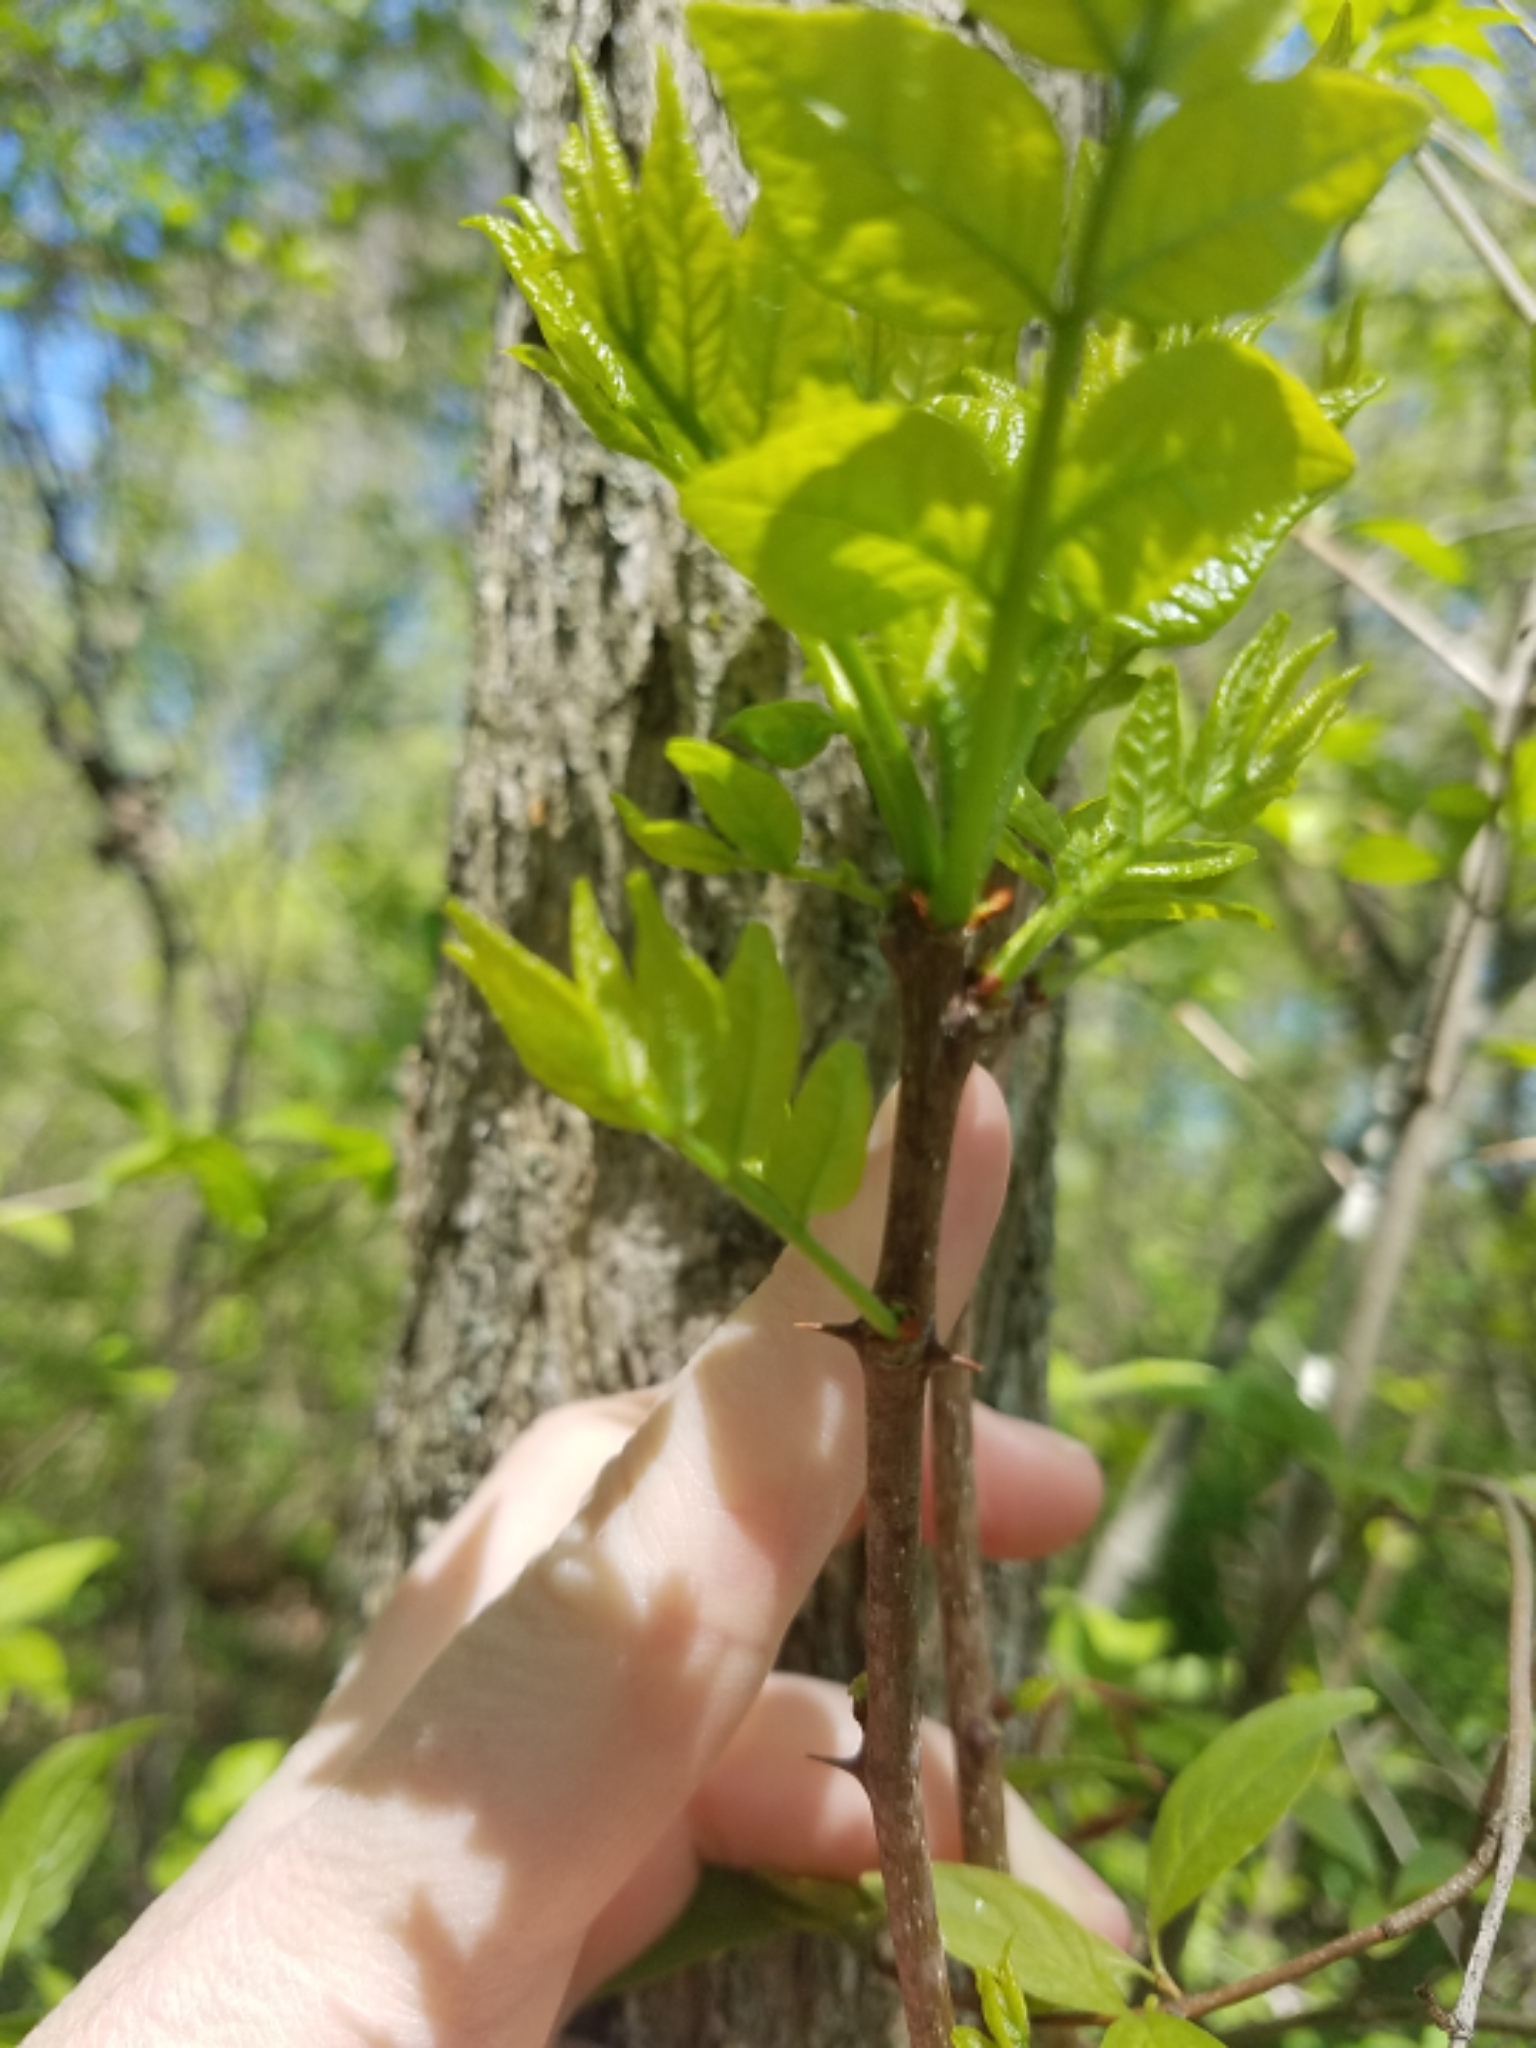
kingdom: Plantae
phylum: Tracheophyta
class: Magnoliopsida
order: Sapindales
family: Rutaceae
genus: Zanthoxylum
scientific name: Zanthoxylum americanum
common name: Northern prickly-ash
